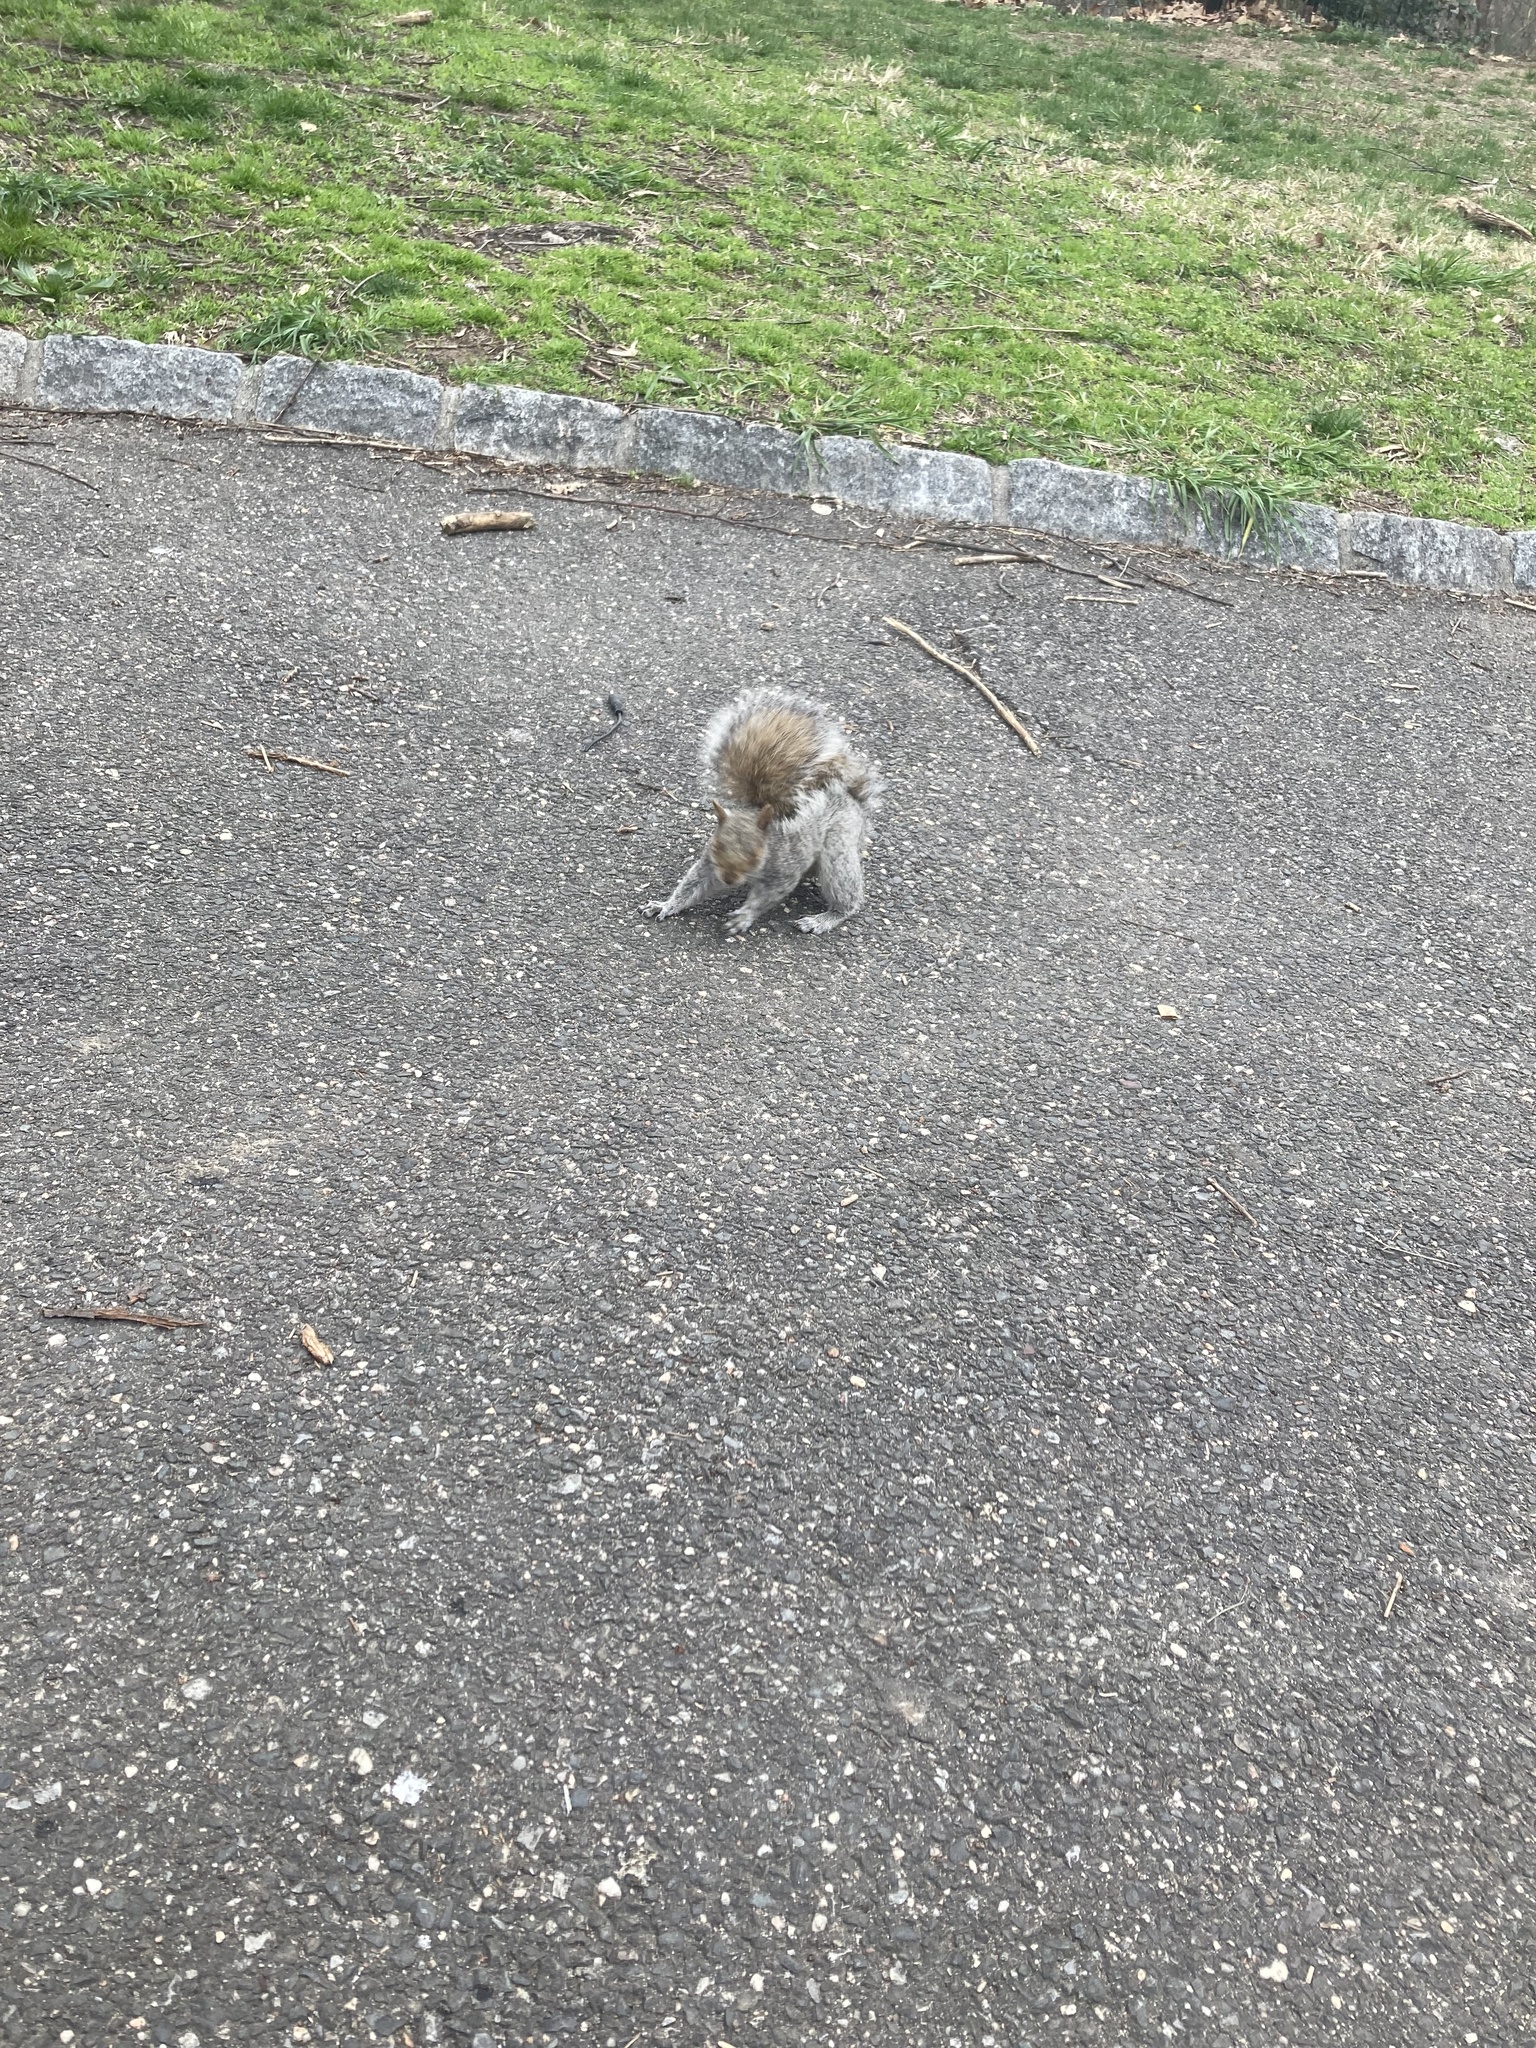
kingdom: Animalia
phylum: Chordata
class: Mammalia
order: Rodentia
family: Sciuridae
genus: Sciurus
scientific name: Sciurus carolinensis
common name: Eastern gray squirrel
